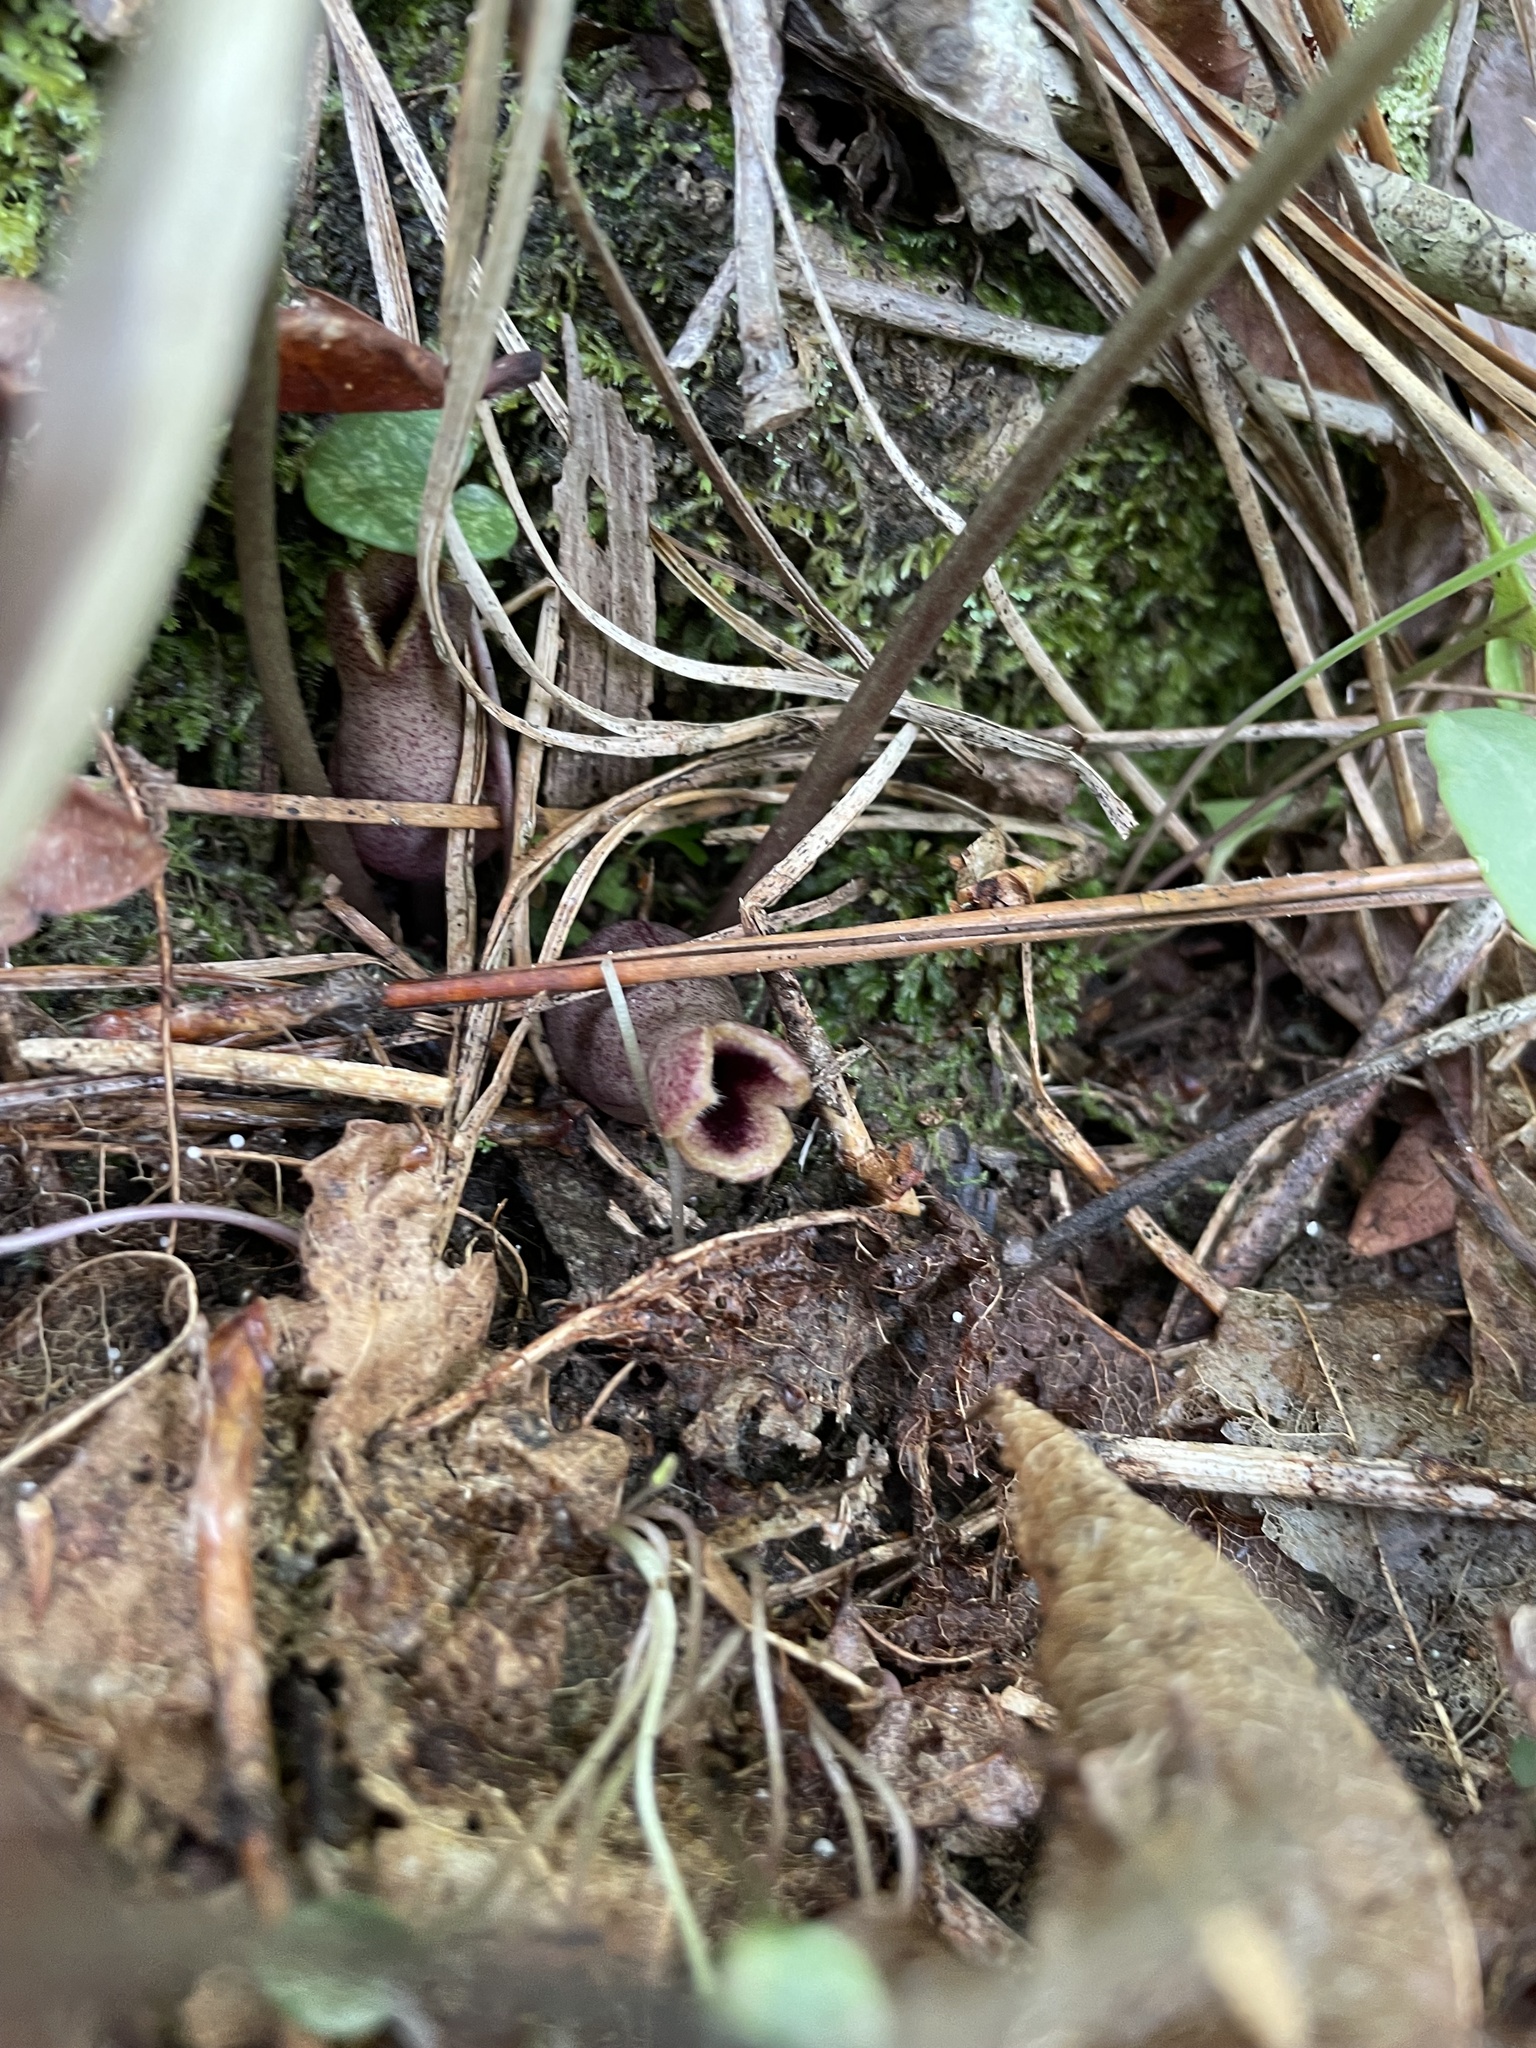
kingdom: Plantae
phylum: Tracheophyta
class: Magnoliopsida
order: Piperales
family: Aristolochiaceae
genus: Hexastylis
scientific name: Hexastylis arifolia
